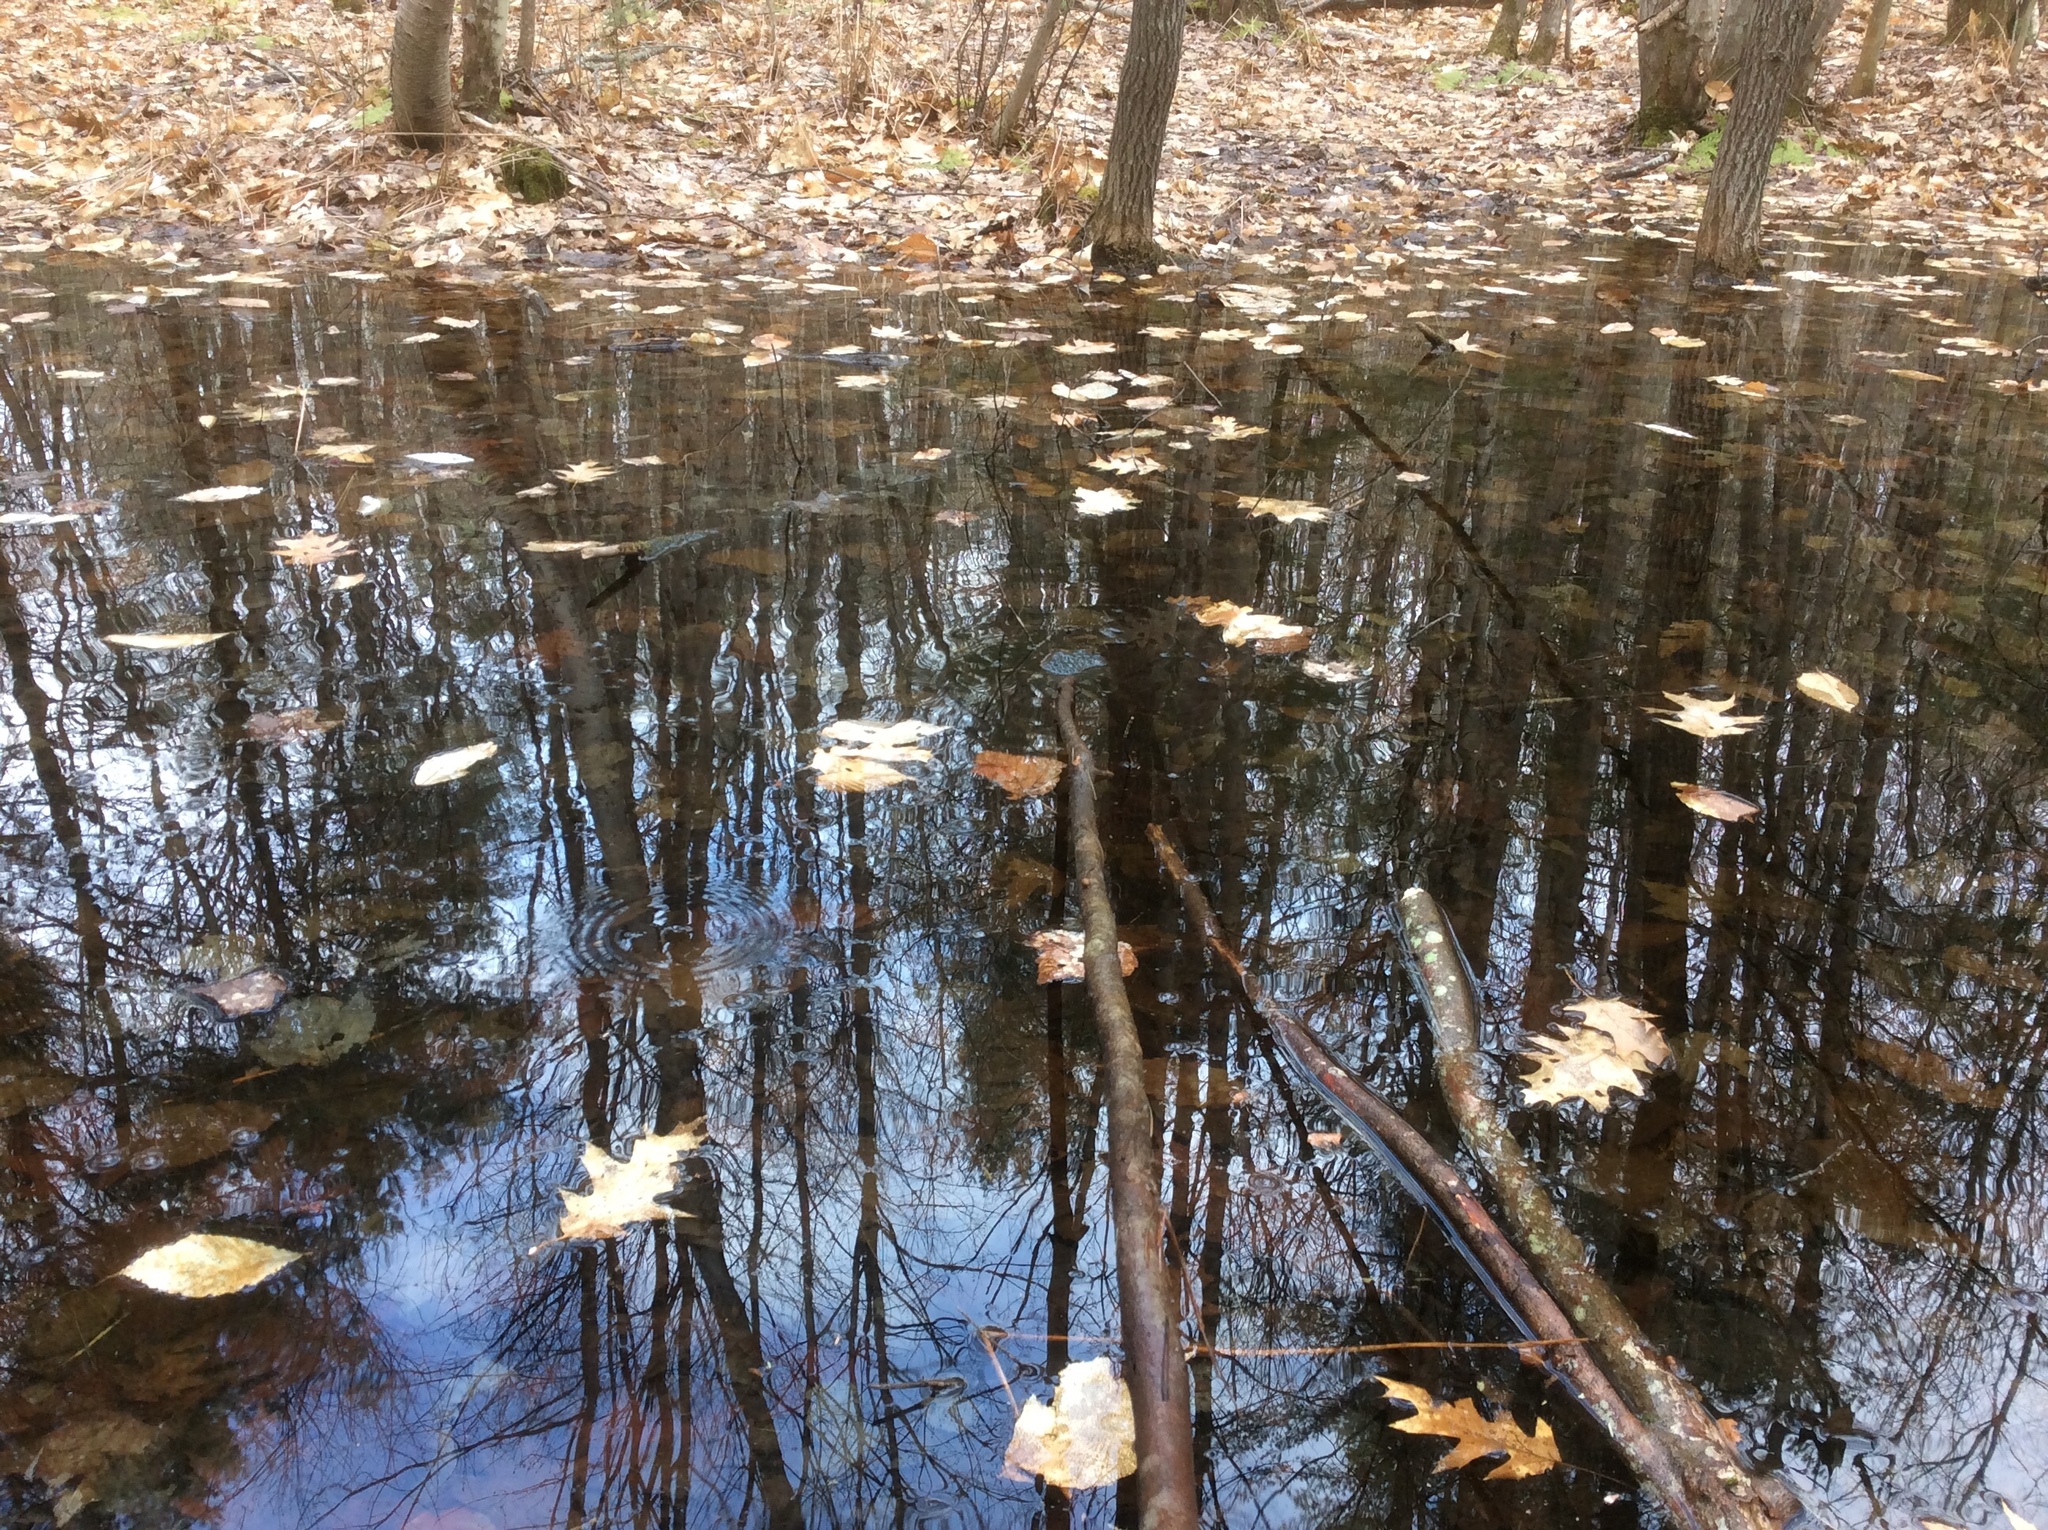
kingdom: Animalia
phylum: Chordata
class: Amphibia
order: Anura
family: Ranidae
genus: Lithobates
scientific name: Lithobates sylvaticus
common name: Wood frog
